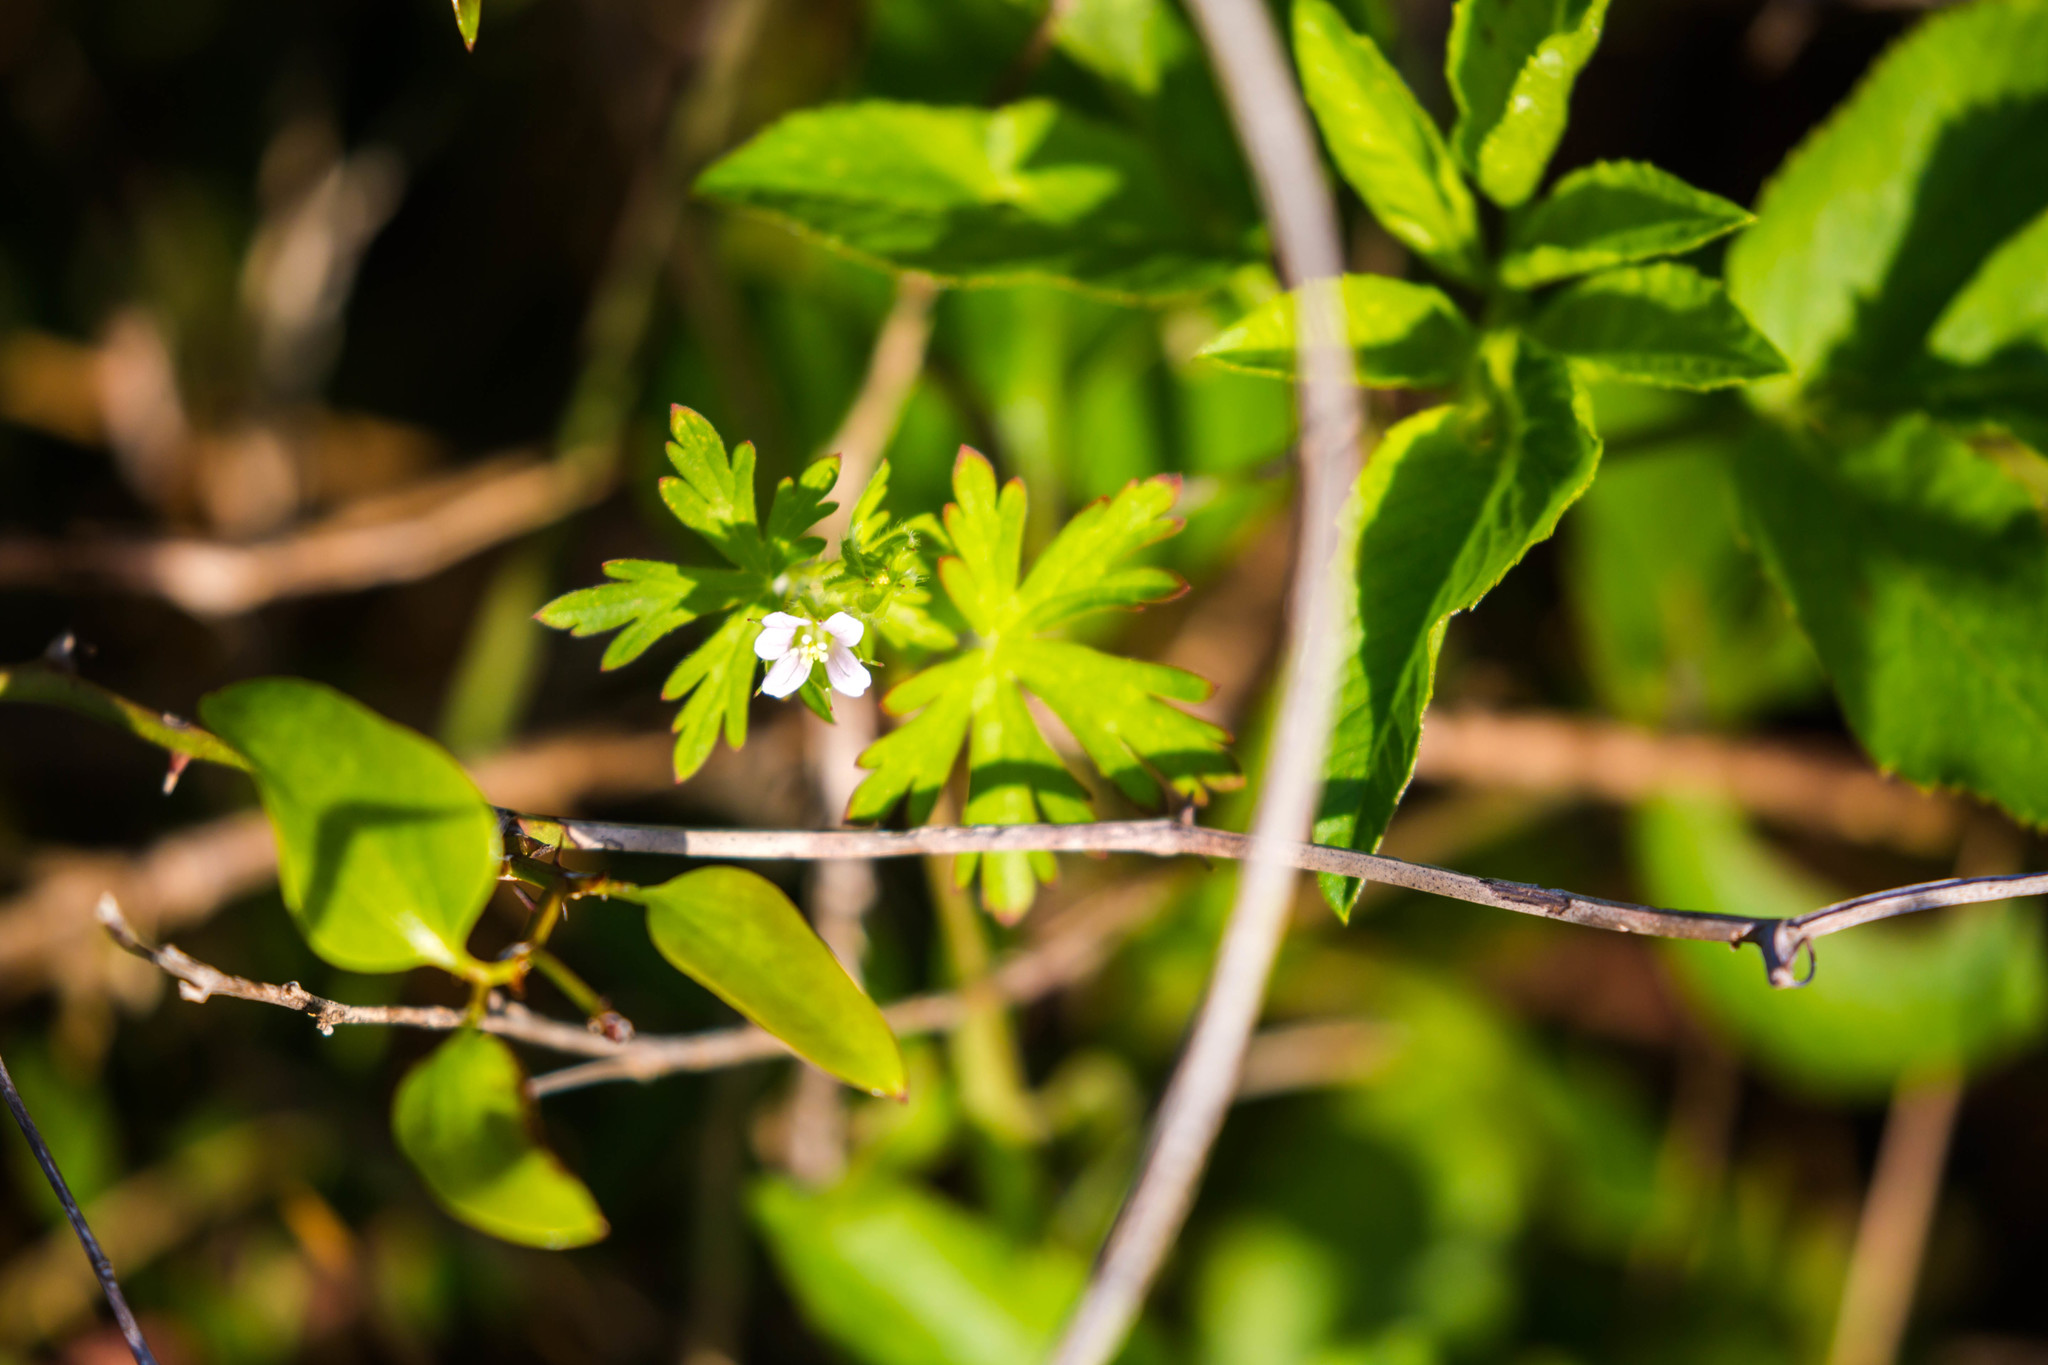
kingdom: Plantae
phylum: Tracheophyta
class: Magnoliopsida
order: Geraniales
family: Geraniaceae
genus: Geranium
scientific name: Geranium carolinianum
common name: Carolina crane's-bill
